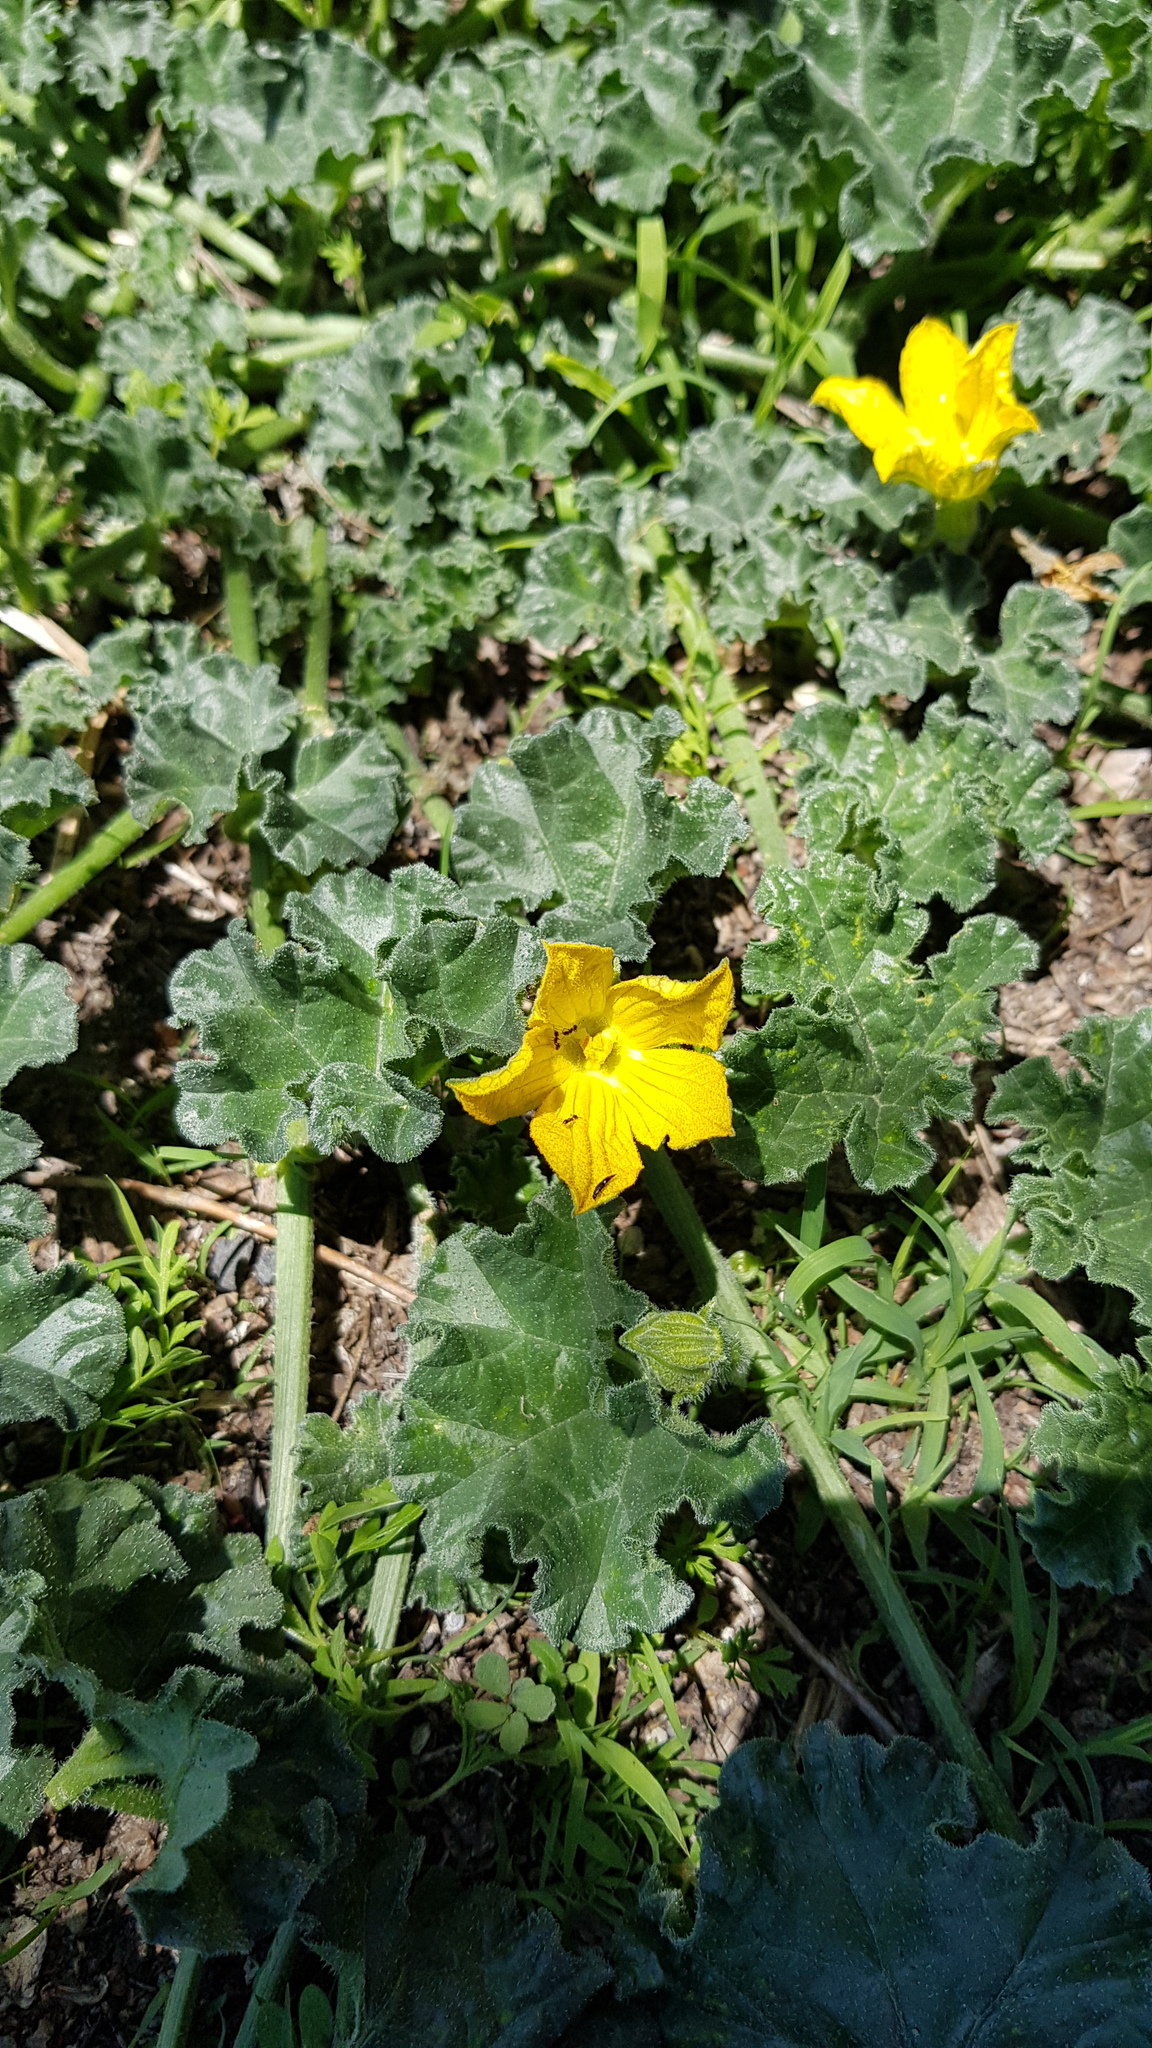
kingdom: Plantae
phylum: Tracheophyta
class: Magnoliopsida
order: Cucurbitales
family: Cucurbitaceae
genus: Apodanthera
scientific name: Apodanthera undulata
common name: Melon-loco
